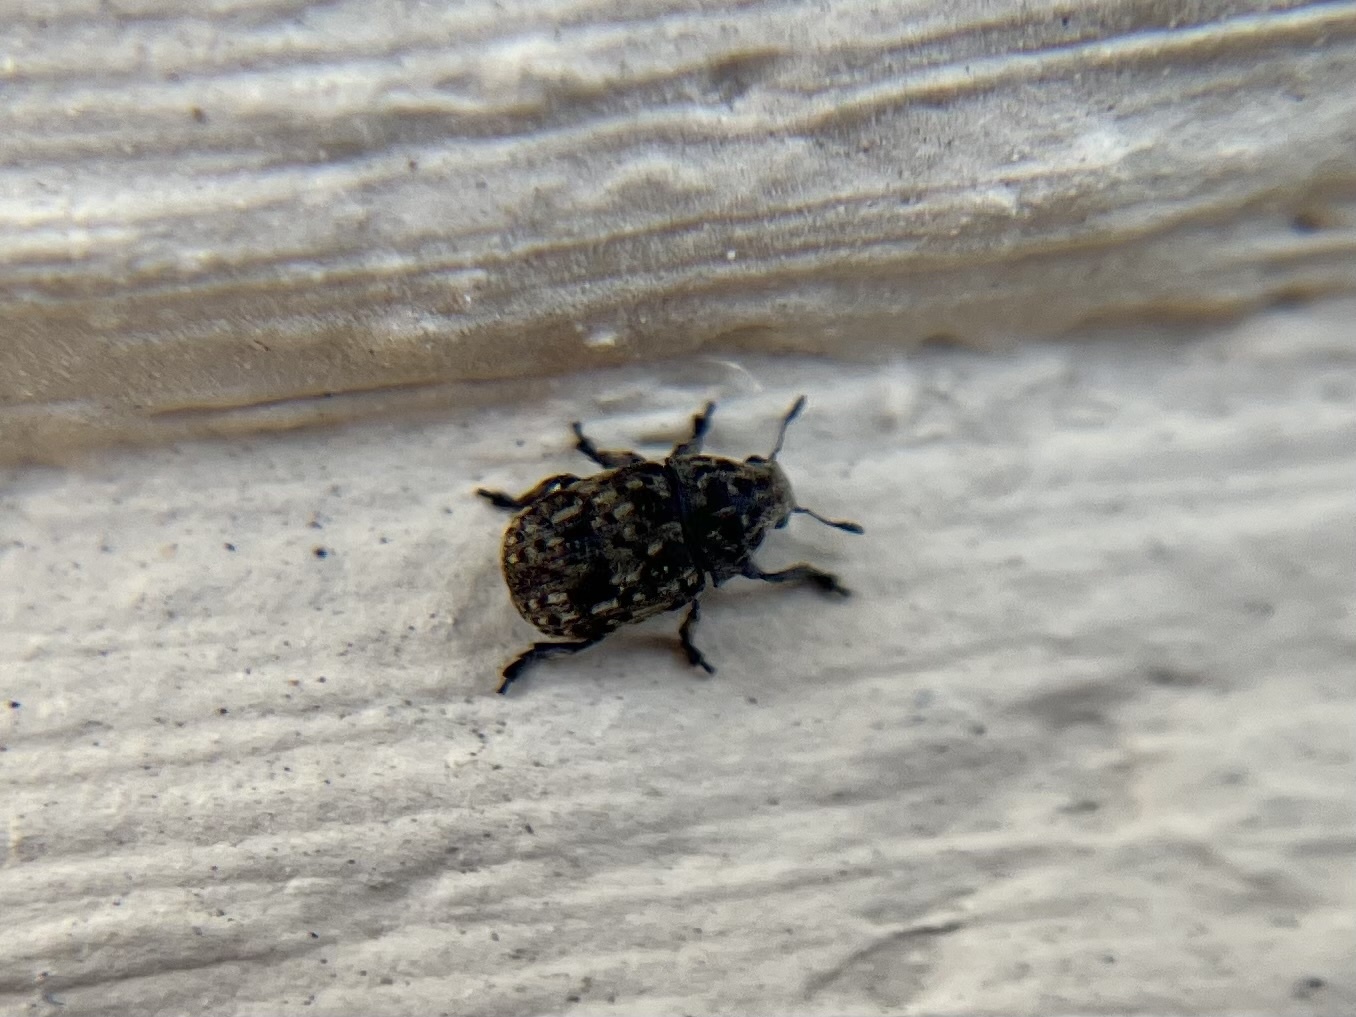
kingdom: Animalia
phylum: Arthropoda
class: Insecta
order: Coleoptera
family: Anthribidae
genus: Anthribus
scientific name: Anthribus nebulosus
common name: Fungus weevil
